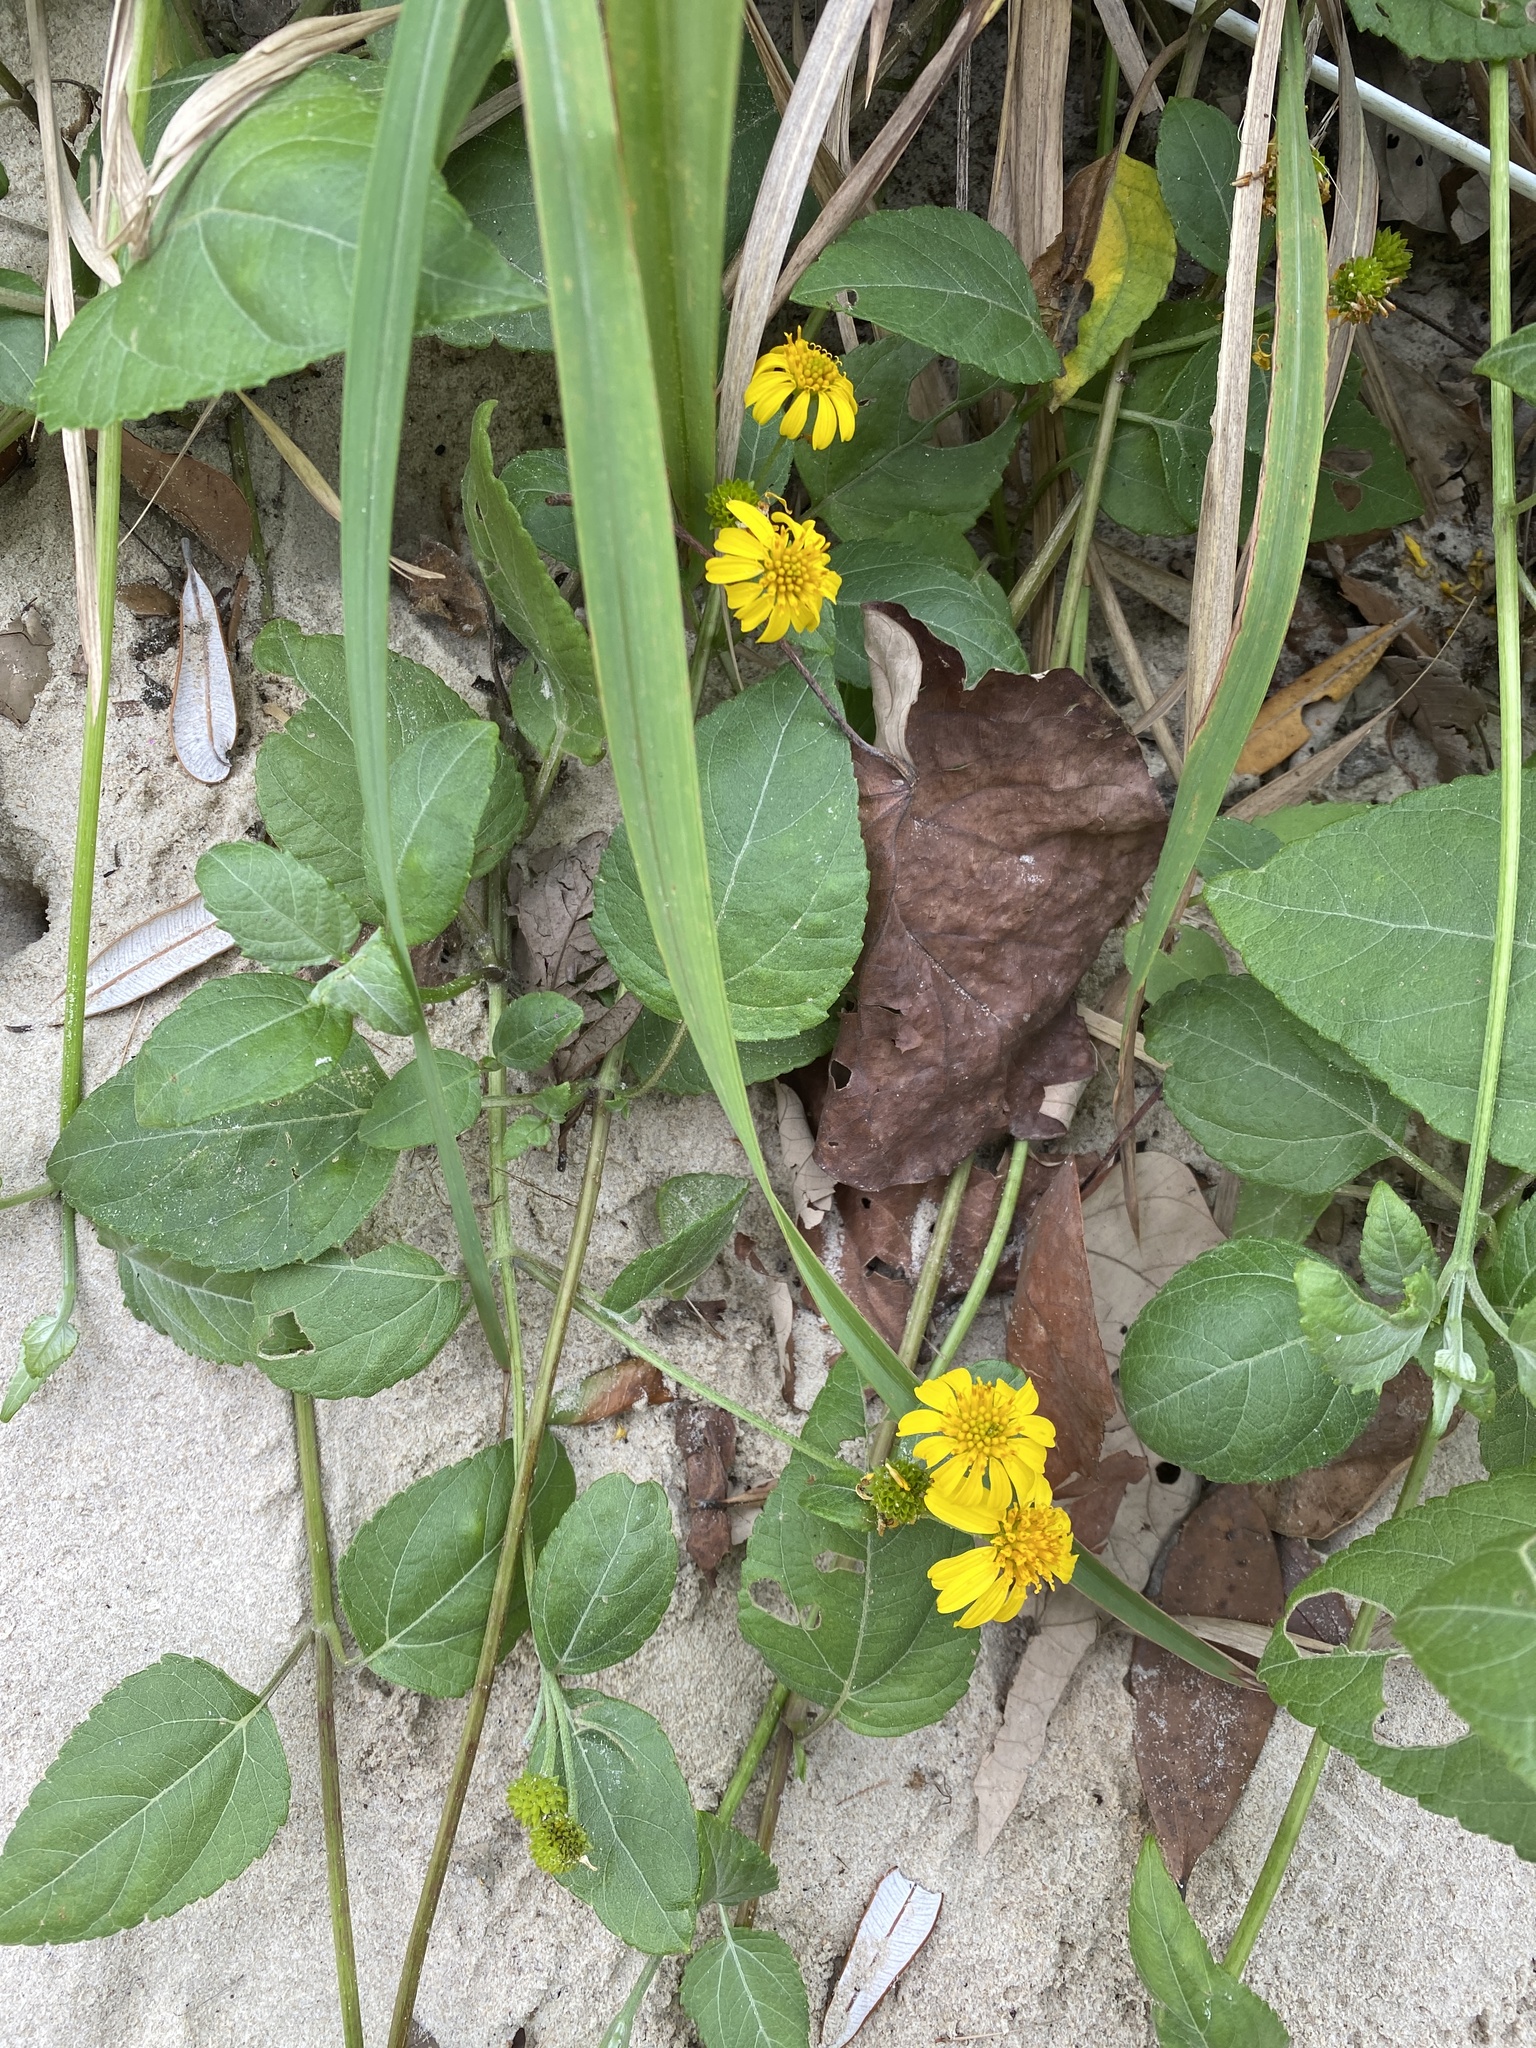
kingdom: Plantae
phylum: Tracheophyta
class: Magnoliopsida
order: Asterales
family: Asteraceae
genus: Wollastonia
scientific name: Wollastonia uniflora
